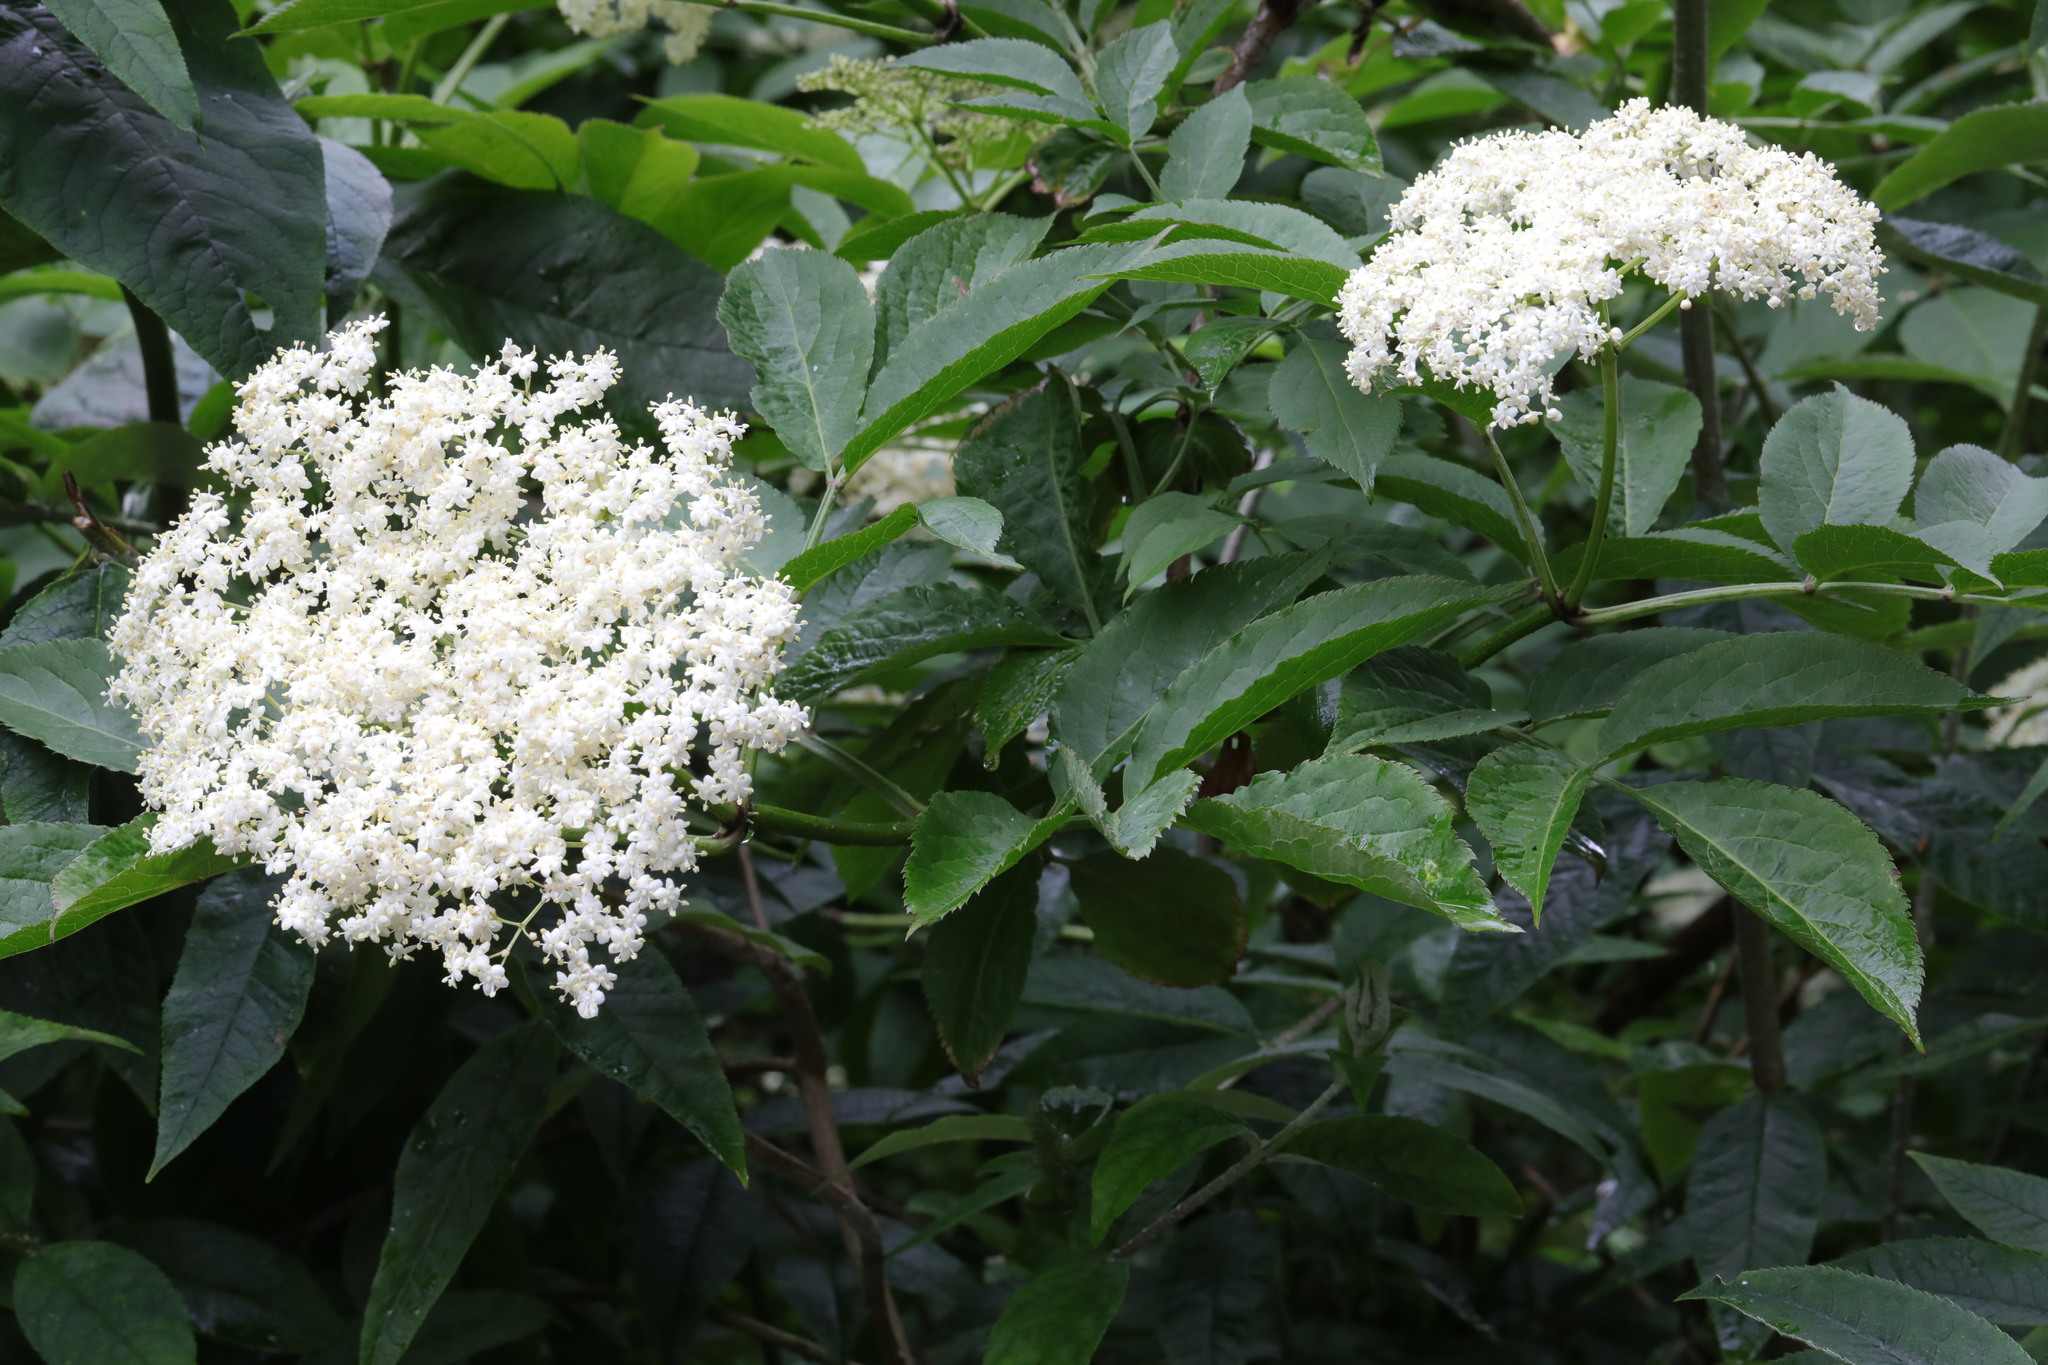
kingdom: Plantae
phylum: Tracheophyta
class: Magnoliopsida
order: Dipsacales
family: Viburnaceae
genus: Sambucus
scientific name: Sambucus nigra
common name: Elder
